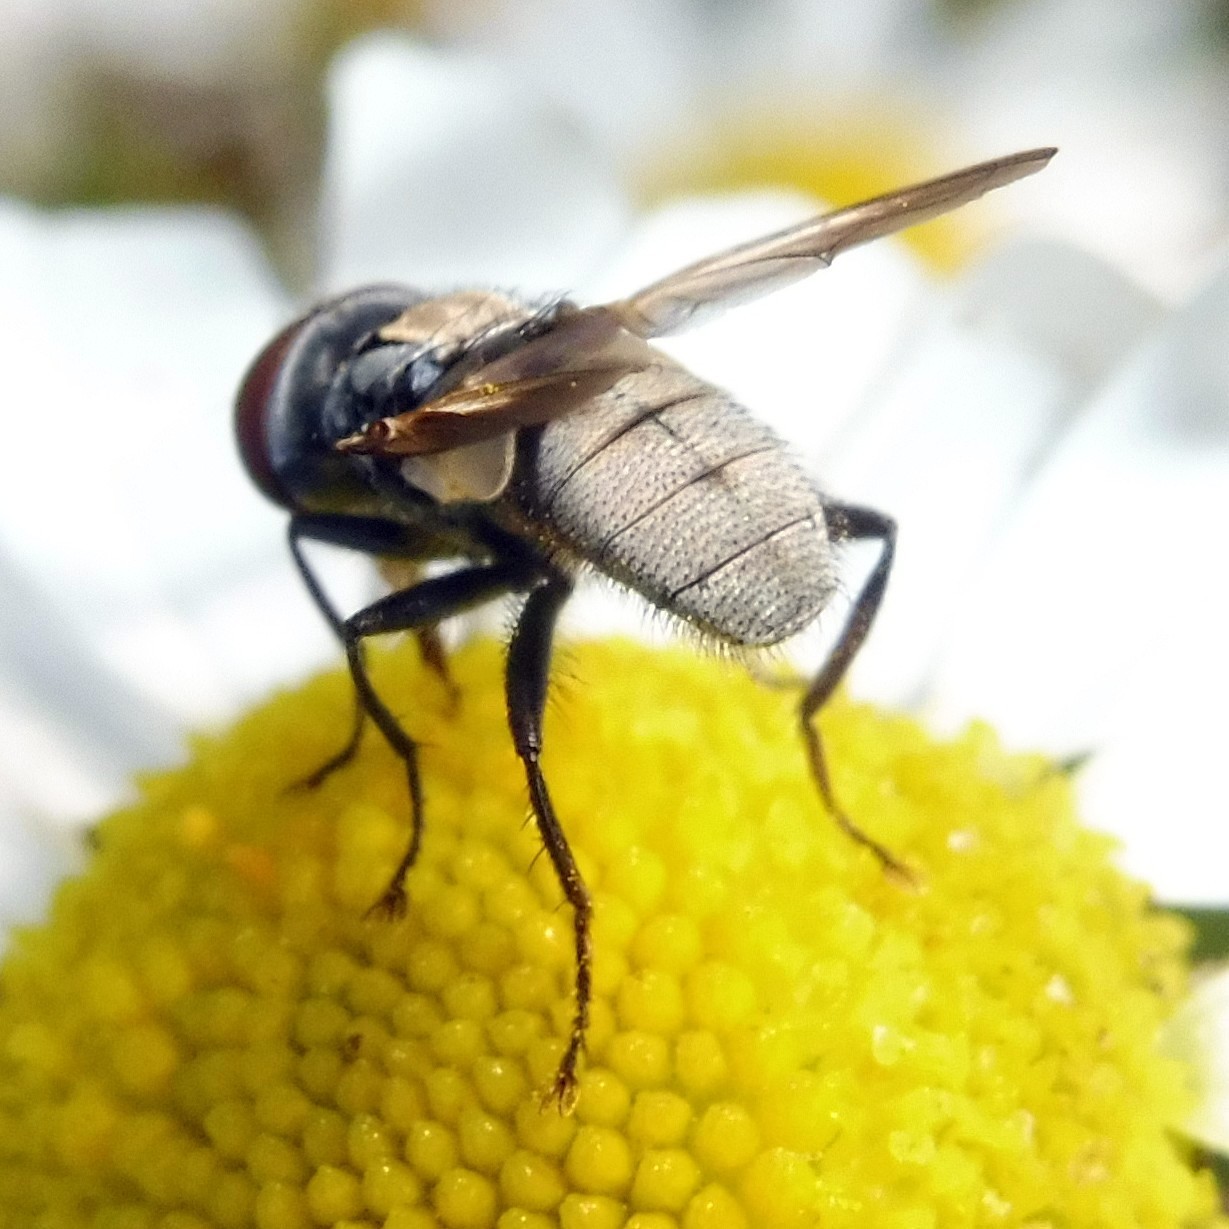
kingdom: Animalia
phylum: Arthropoda
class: Insecta
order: Diptera
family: Tachinidae
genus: Phasia
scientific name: Phasia obesa
